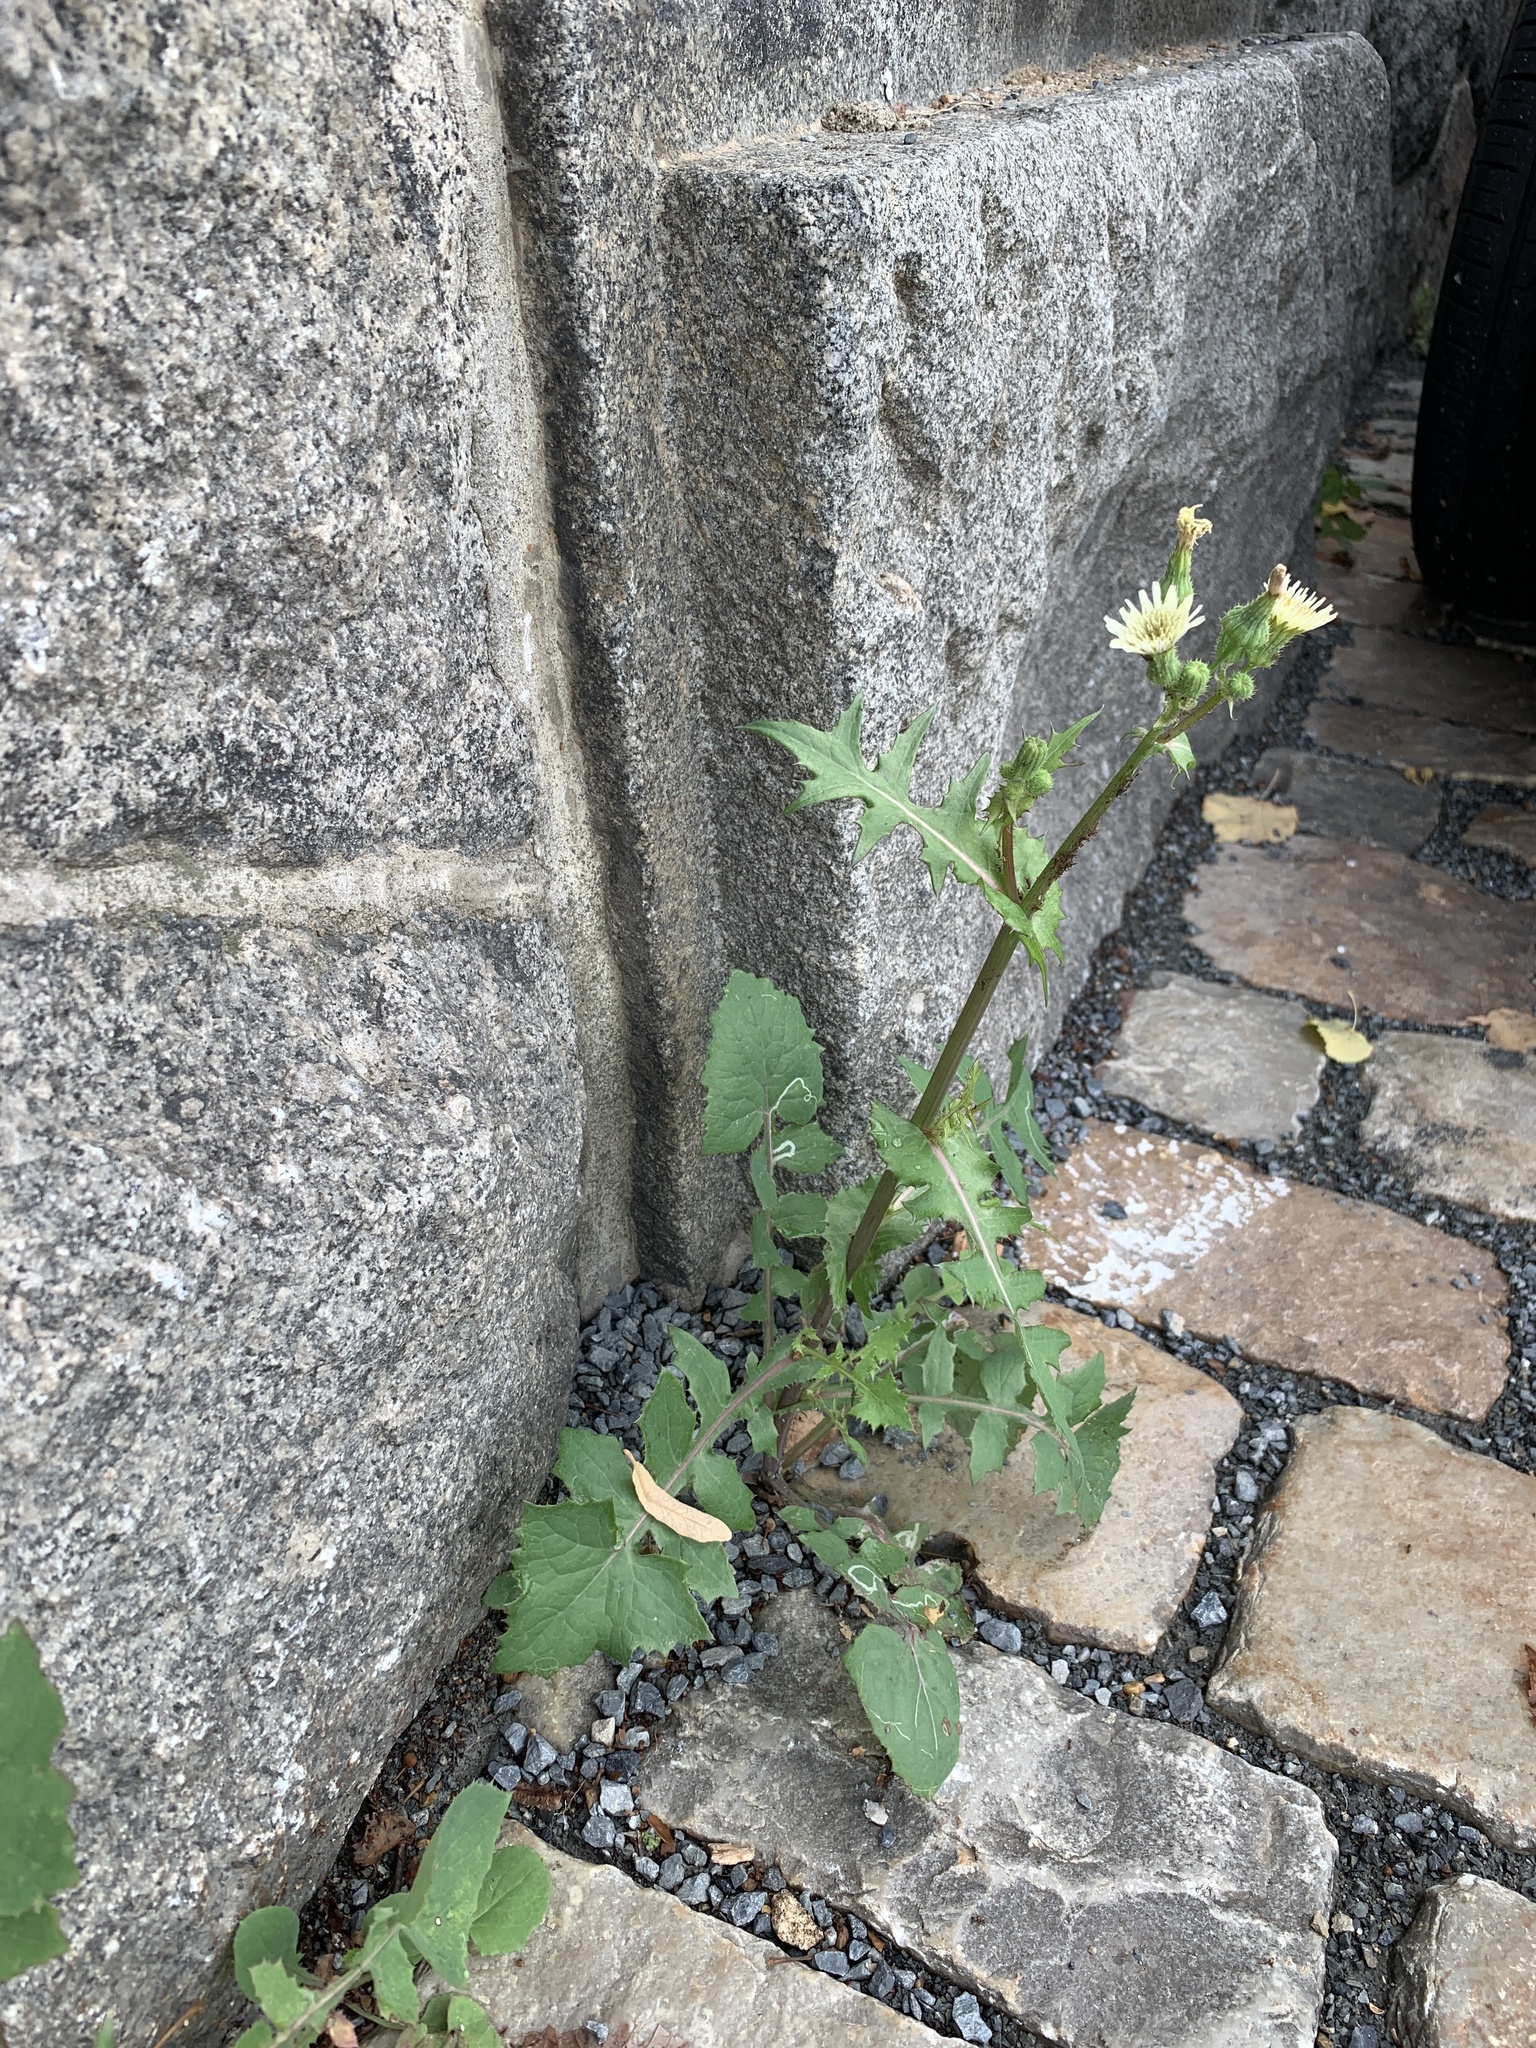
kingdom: Plantae
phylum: Tracheophyta
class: Magnoliopsida
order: Asterales
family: Asteraceae
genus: Sonchus
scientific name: Sonchus oleraceus
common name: Common sowthistle
